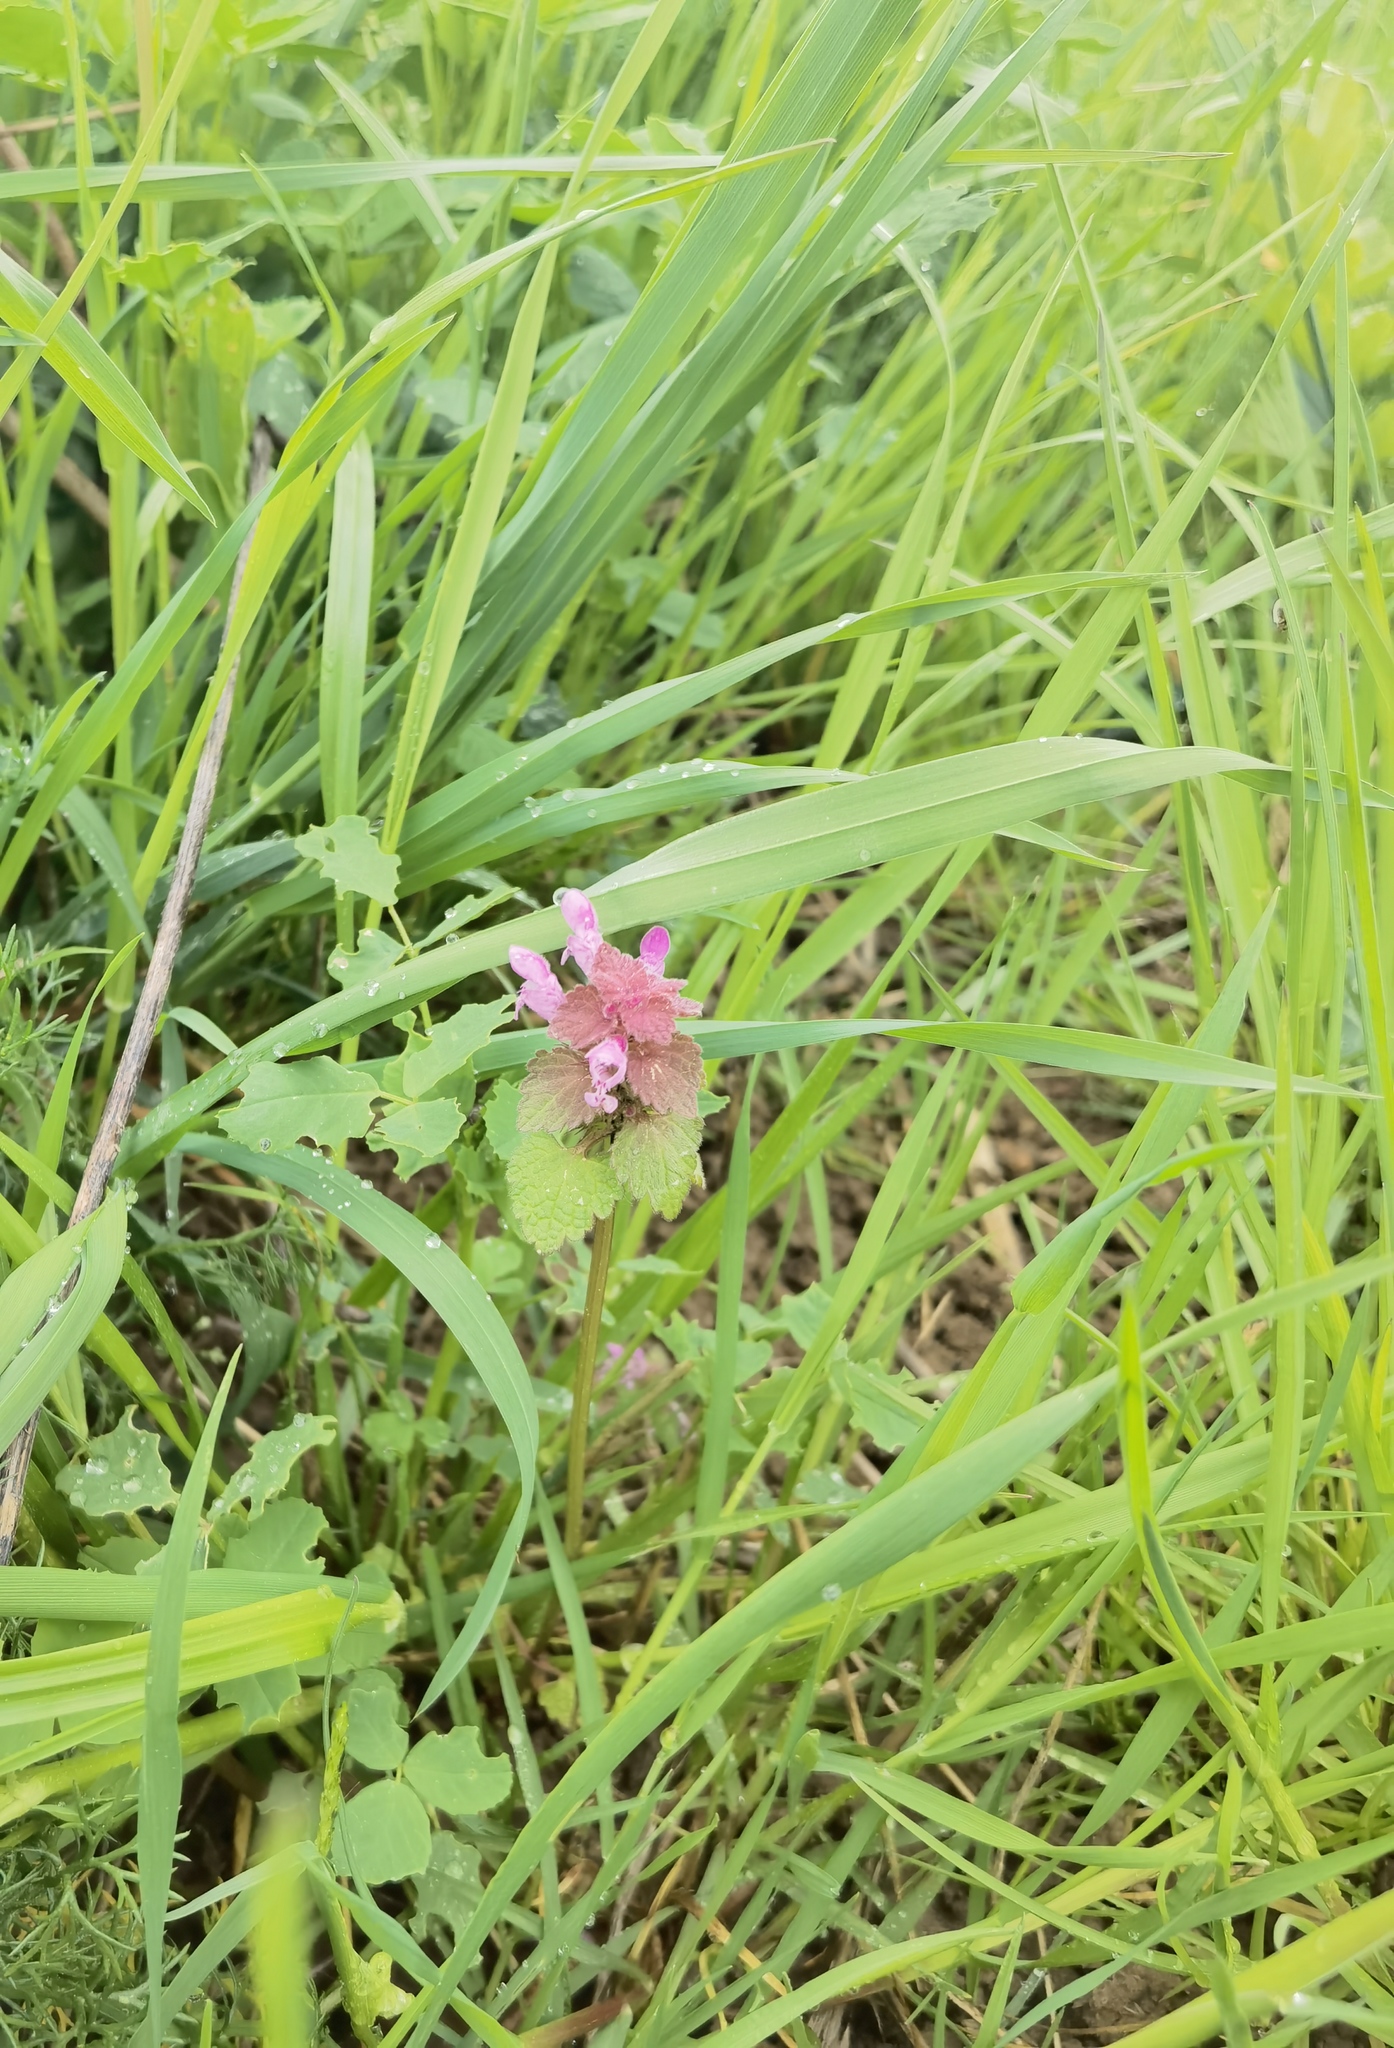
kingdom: Plantae
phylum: Tracheophyta
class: Magnoliopsida
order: Lamiales
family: Lamiaceae
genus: Lamium
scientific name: Lamium purpureum
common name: Red dead-nettle
